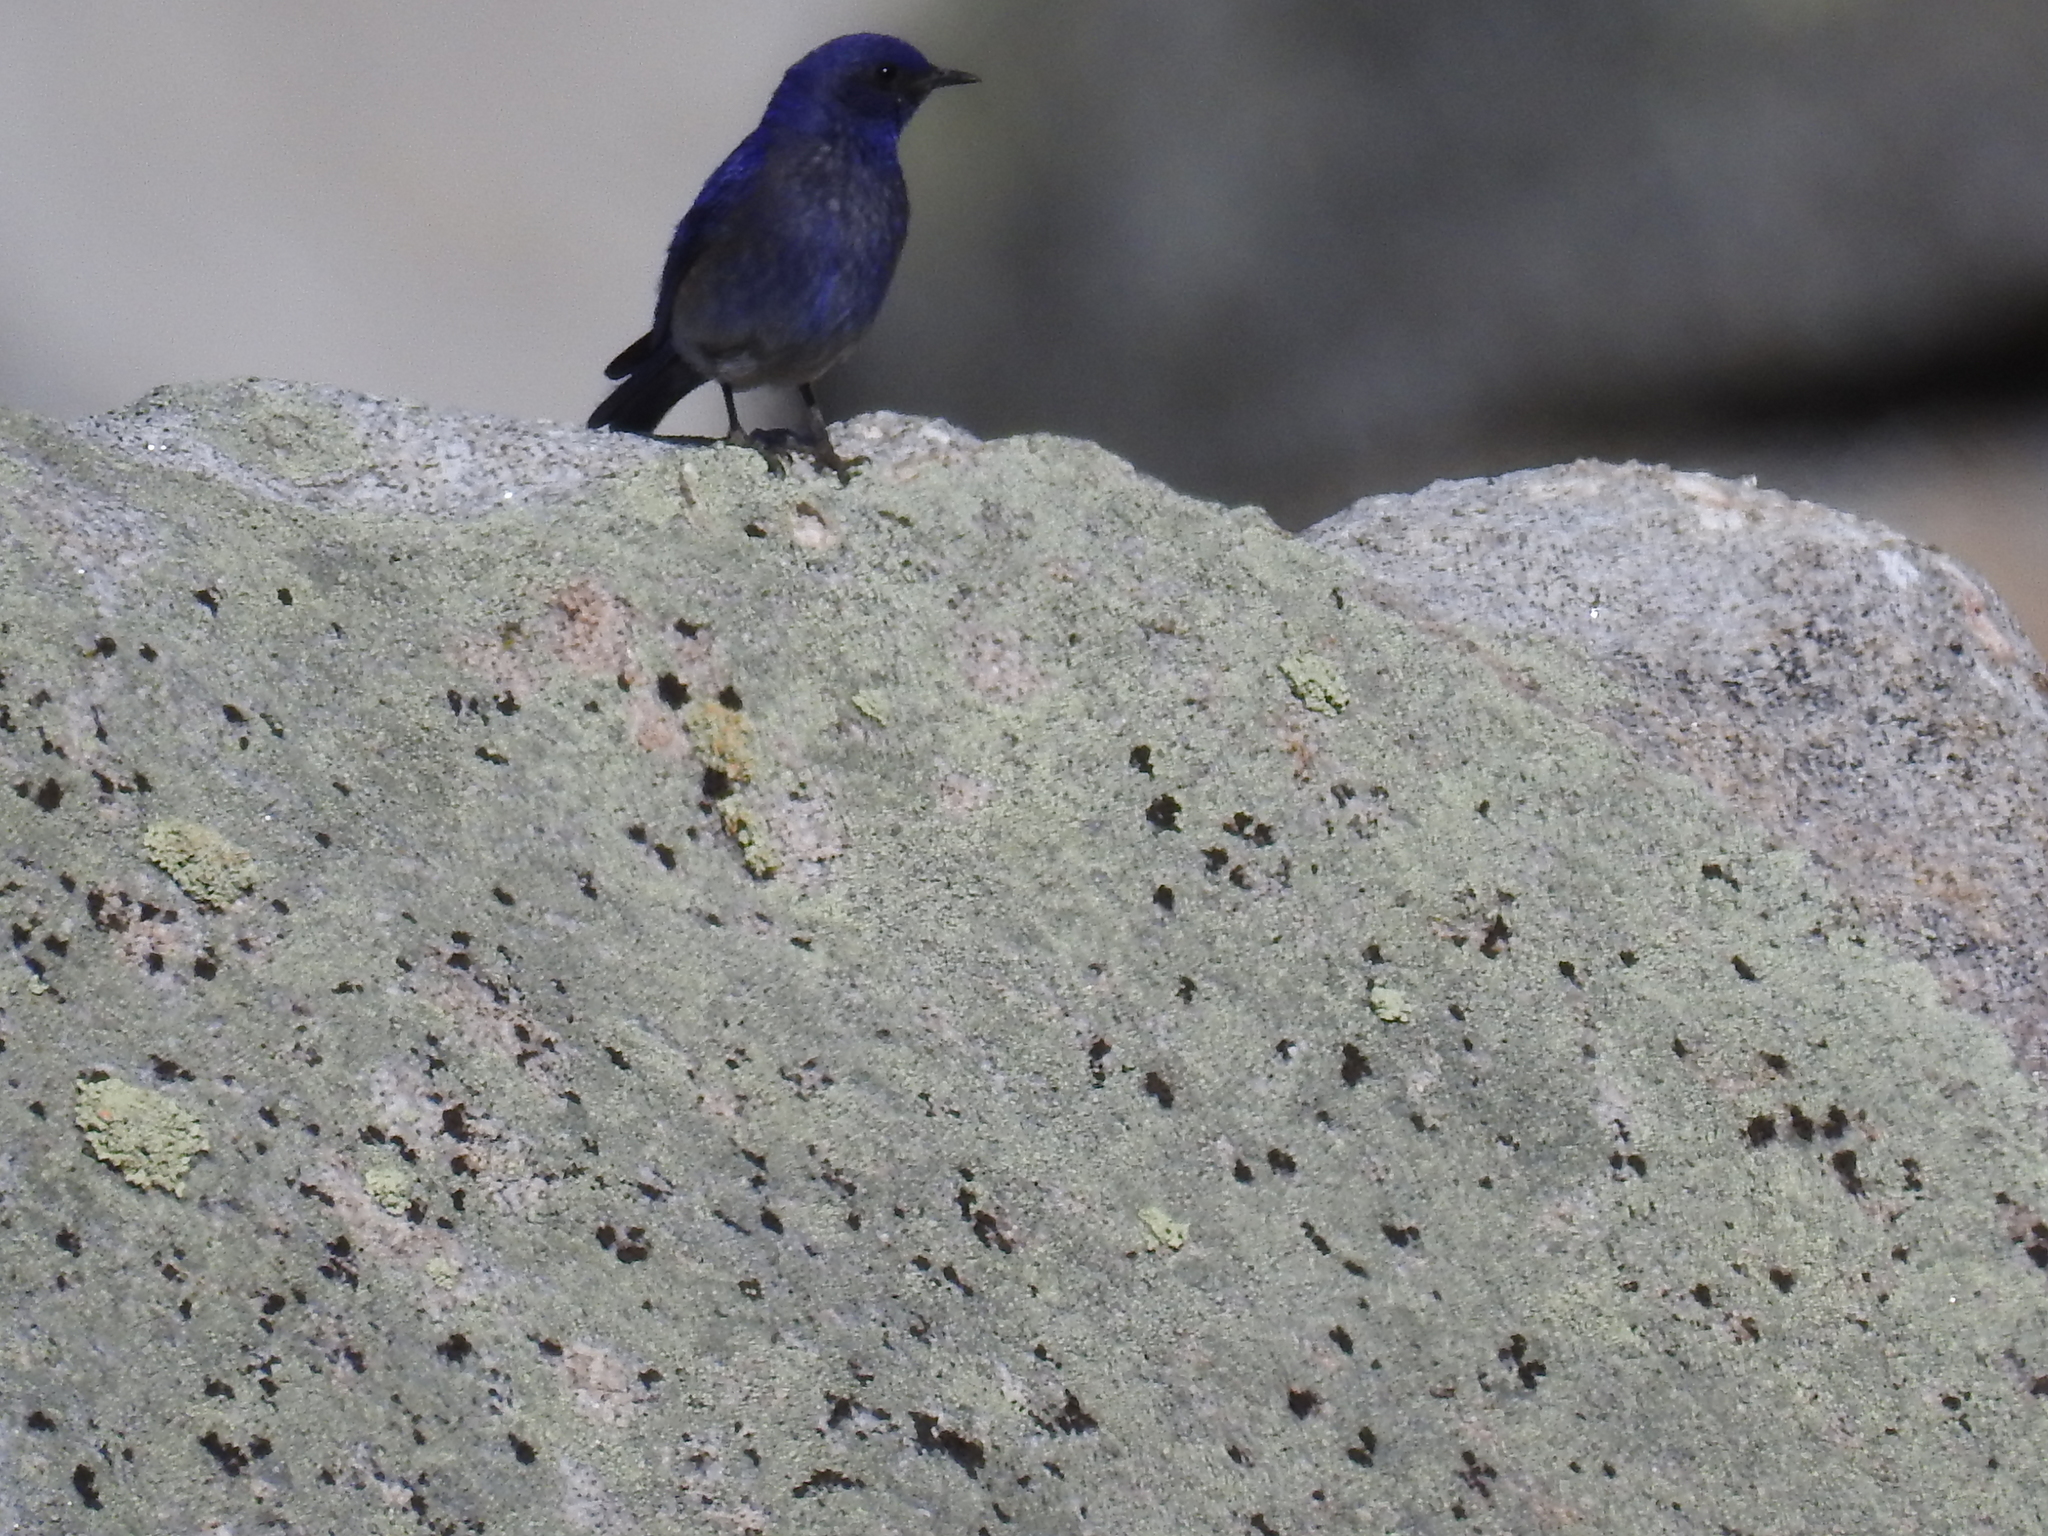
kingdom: Animalia
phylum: Chordata
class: Aves
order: Passeriformes
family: Turdidae
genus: Sialia
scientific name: Sialia mexicana
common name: Western bluebird
